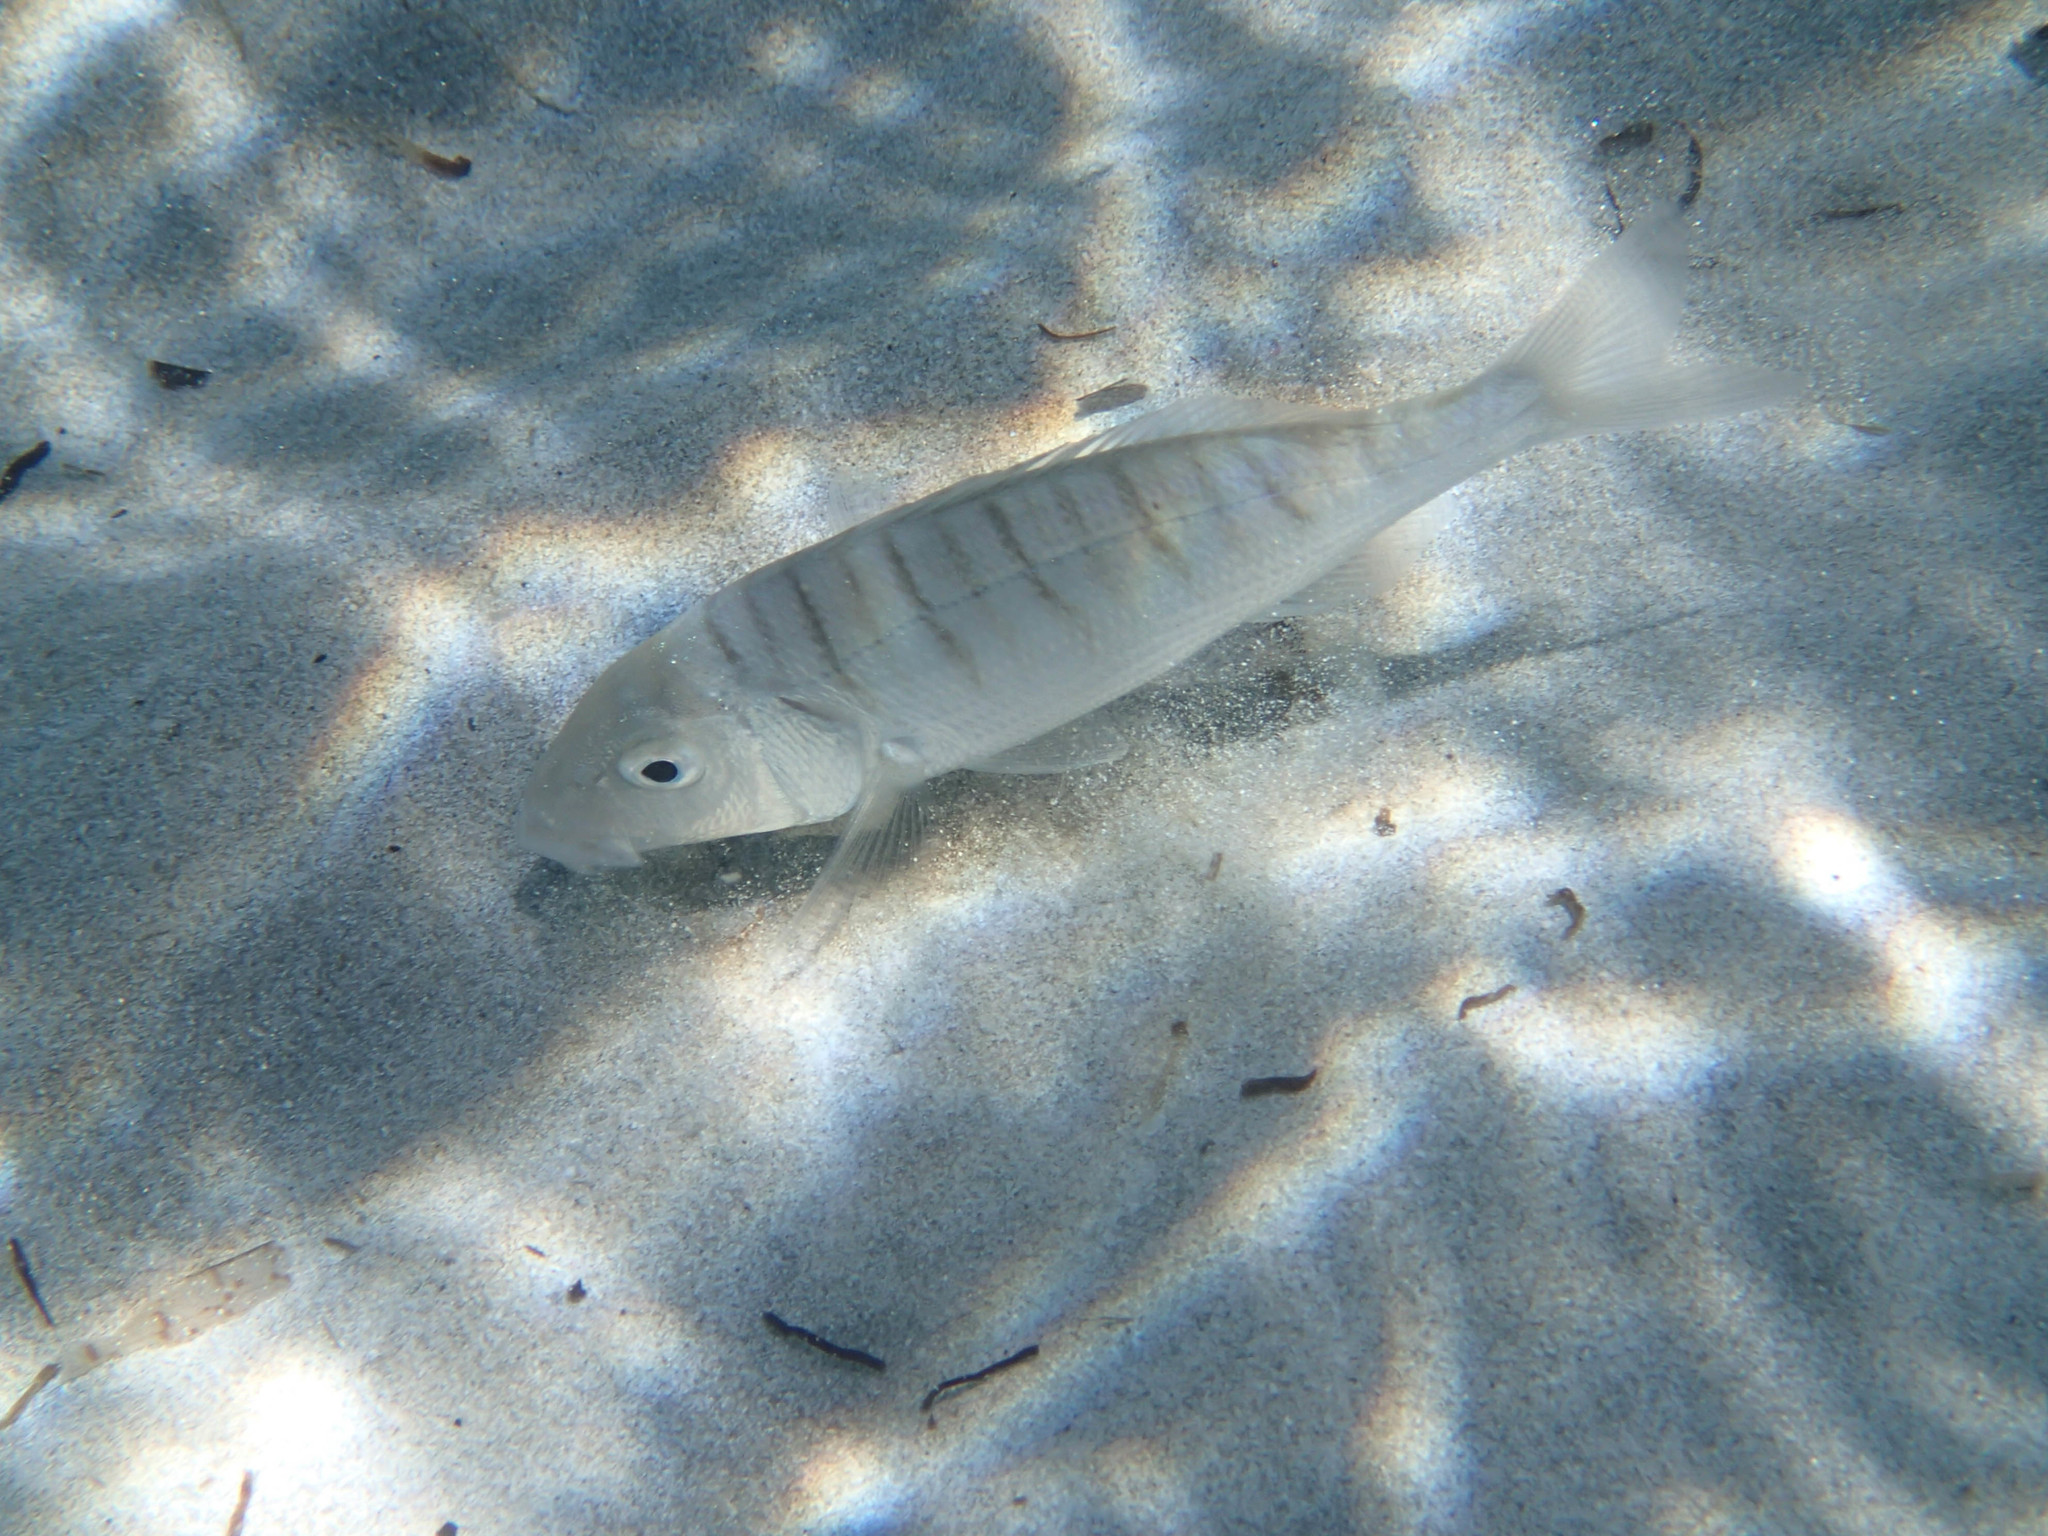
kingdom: Animalia
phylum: Chordata
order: Perciformes
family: Sparidae
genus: Lithognathus
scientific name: Lithognathus mormyrus
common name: Sand steenbras
